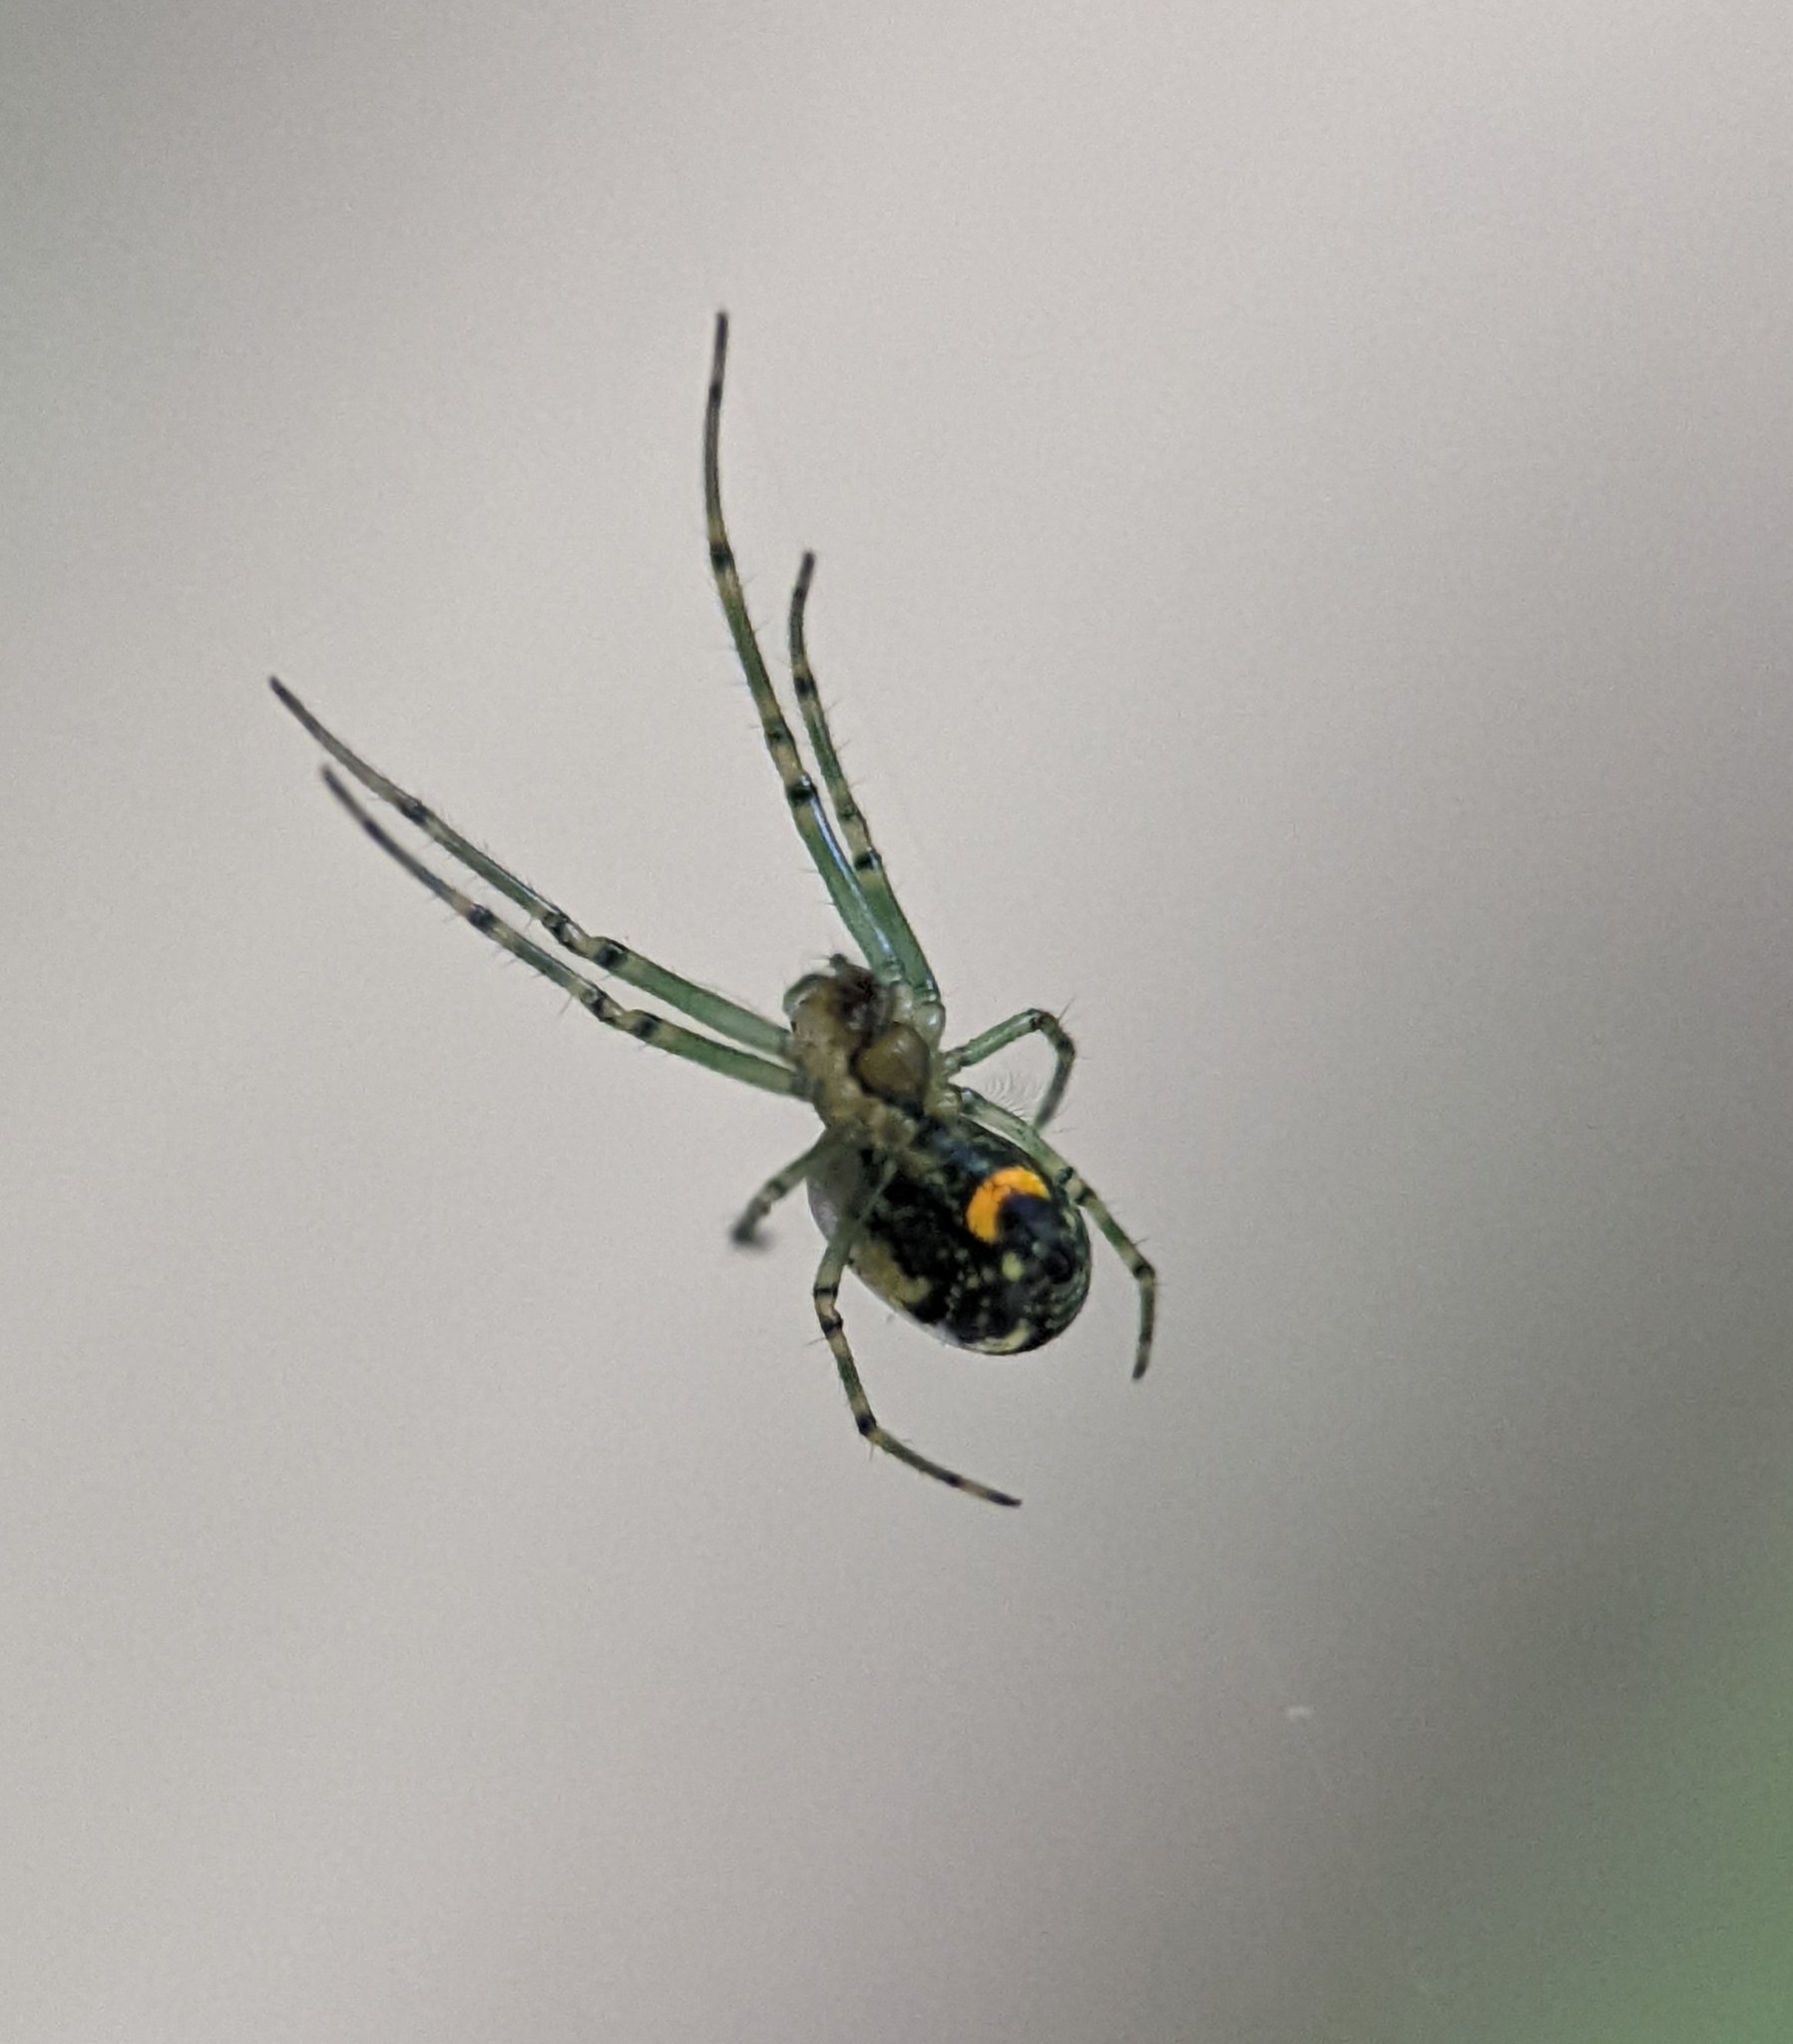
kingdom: Animalia
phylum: Arthropoda
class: Arachnida
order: Araneae
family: Tetragnathidae
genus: Leucauge
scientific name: Leucauge venusta
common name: Longjawed orb weavers
